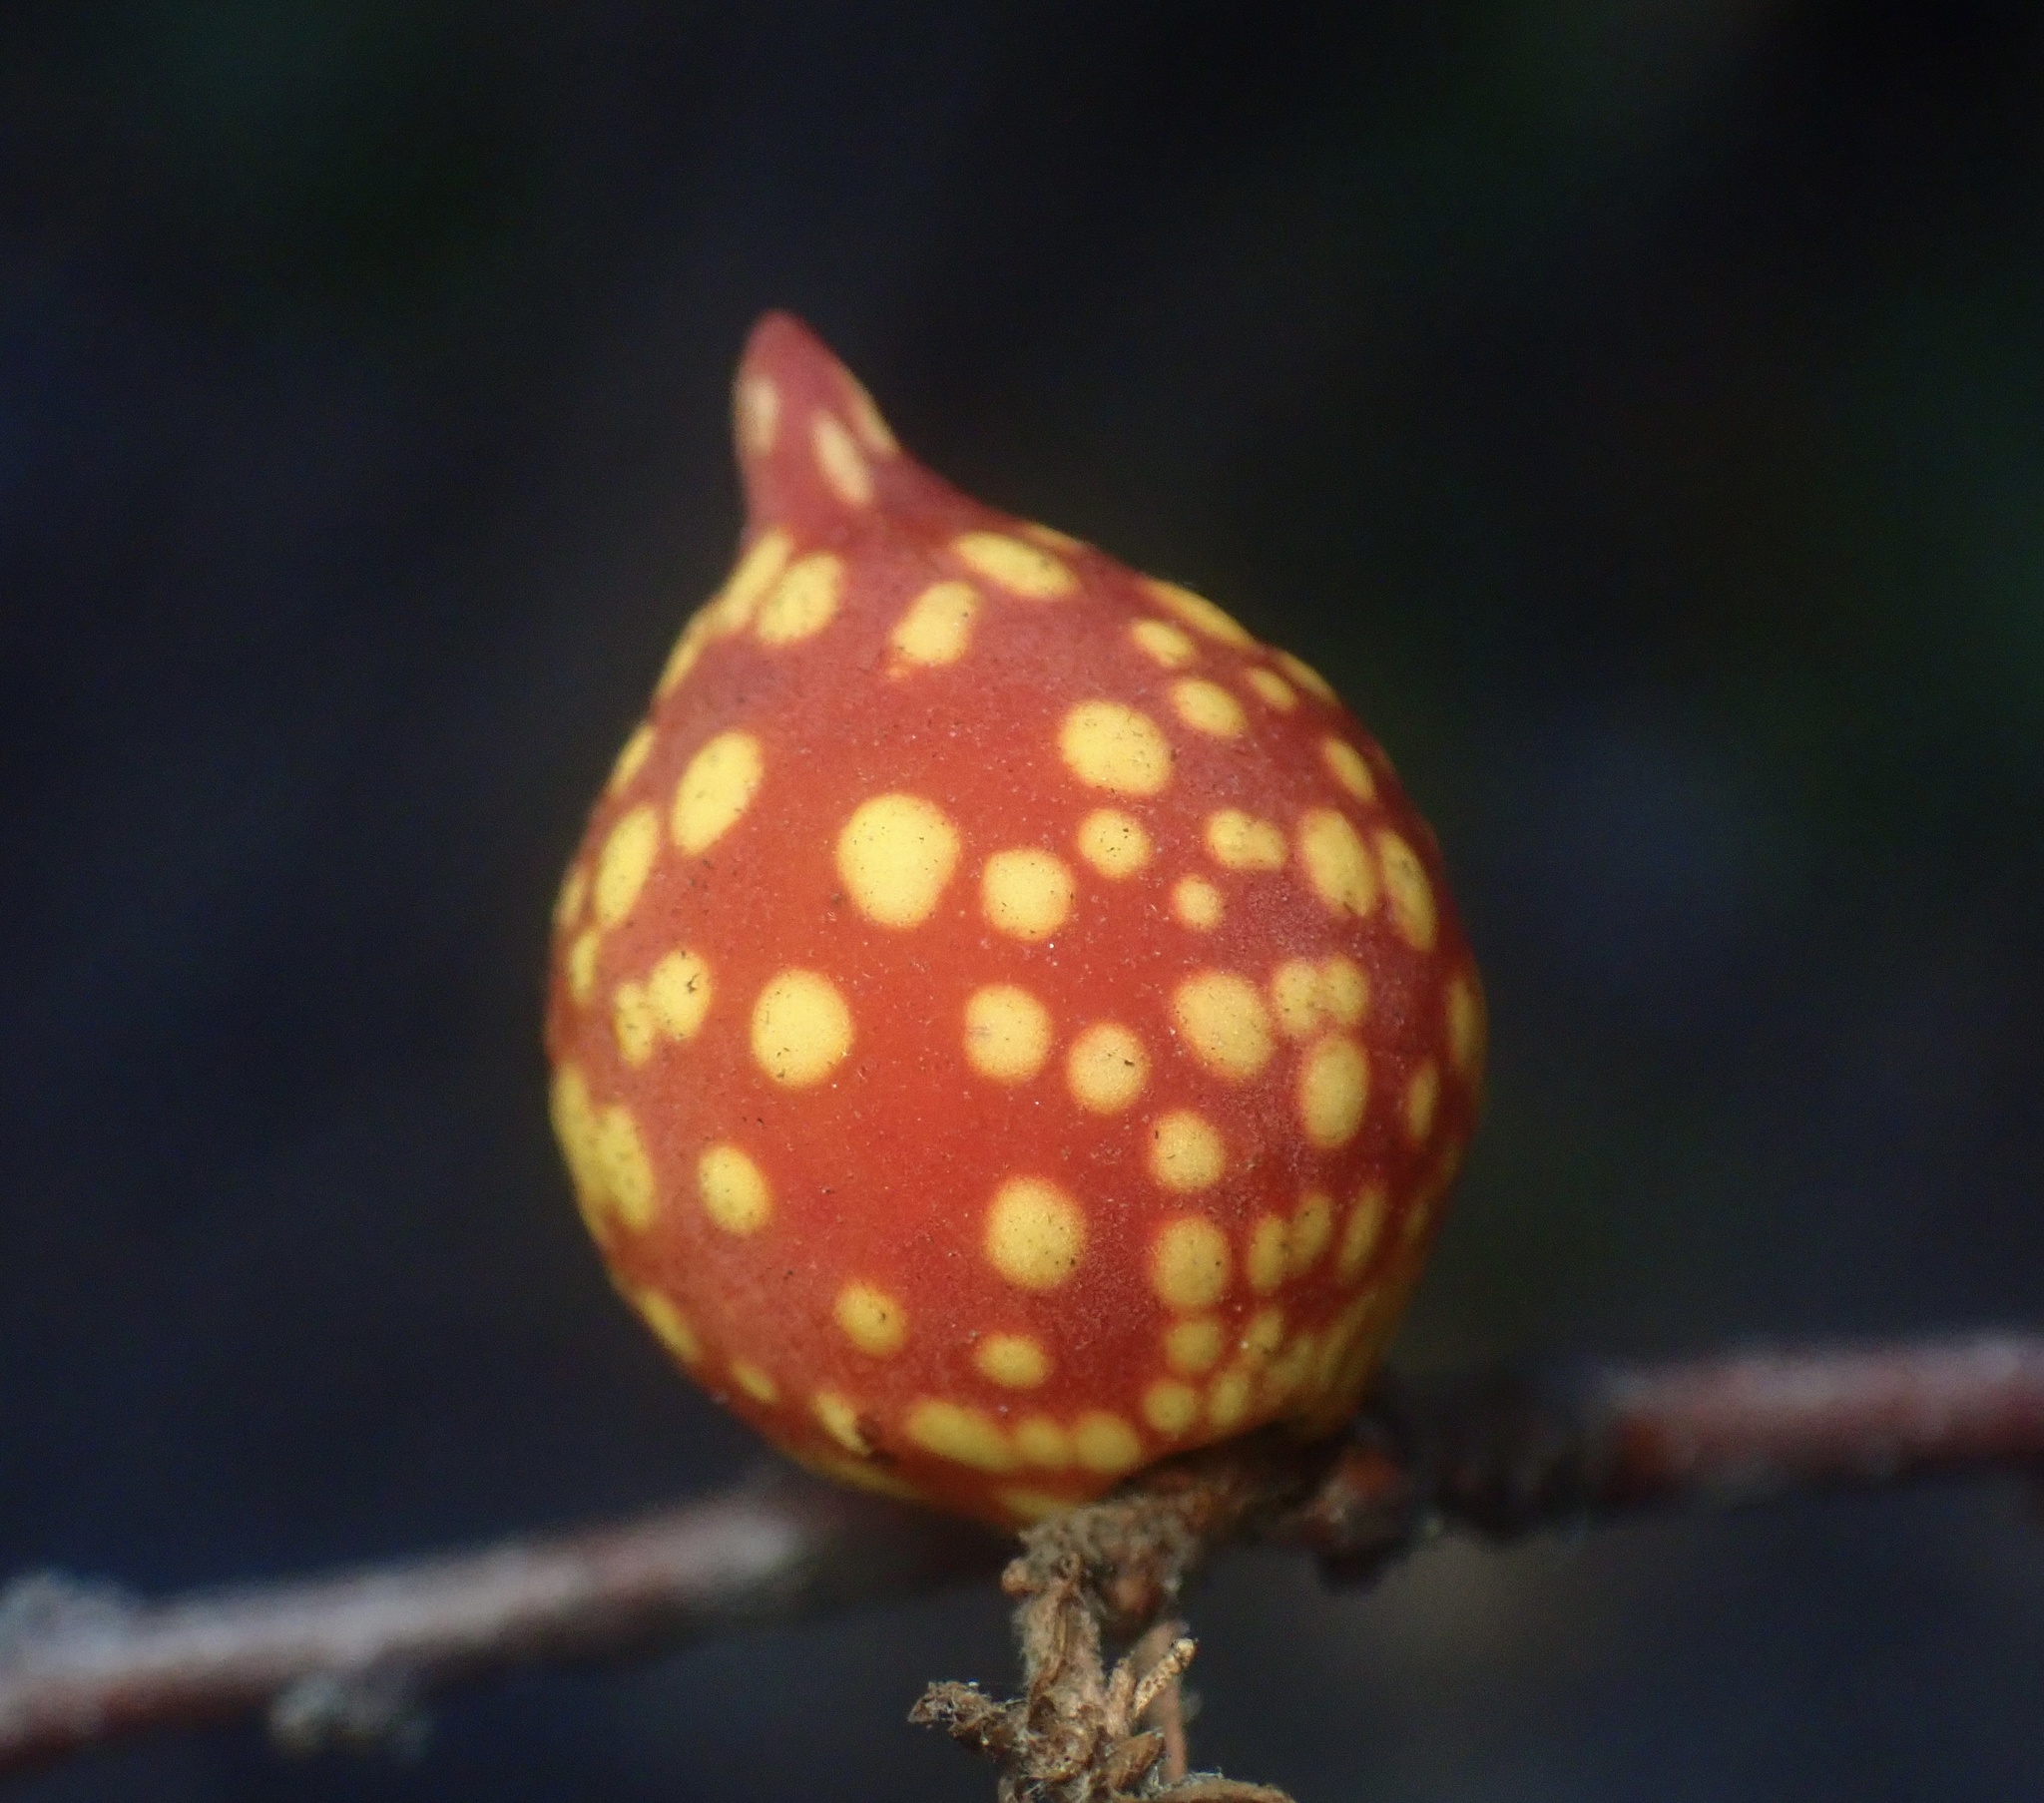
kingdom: Animalia
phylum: Arthropoda
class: Insecta
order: Hymenoptera
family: Cynipidae
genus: Burnettweldia
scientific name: Burnettweldia
